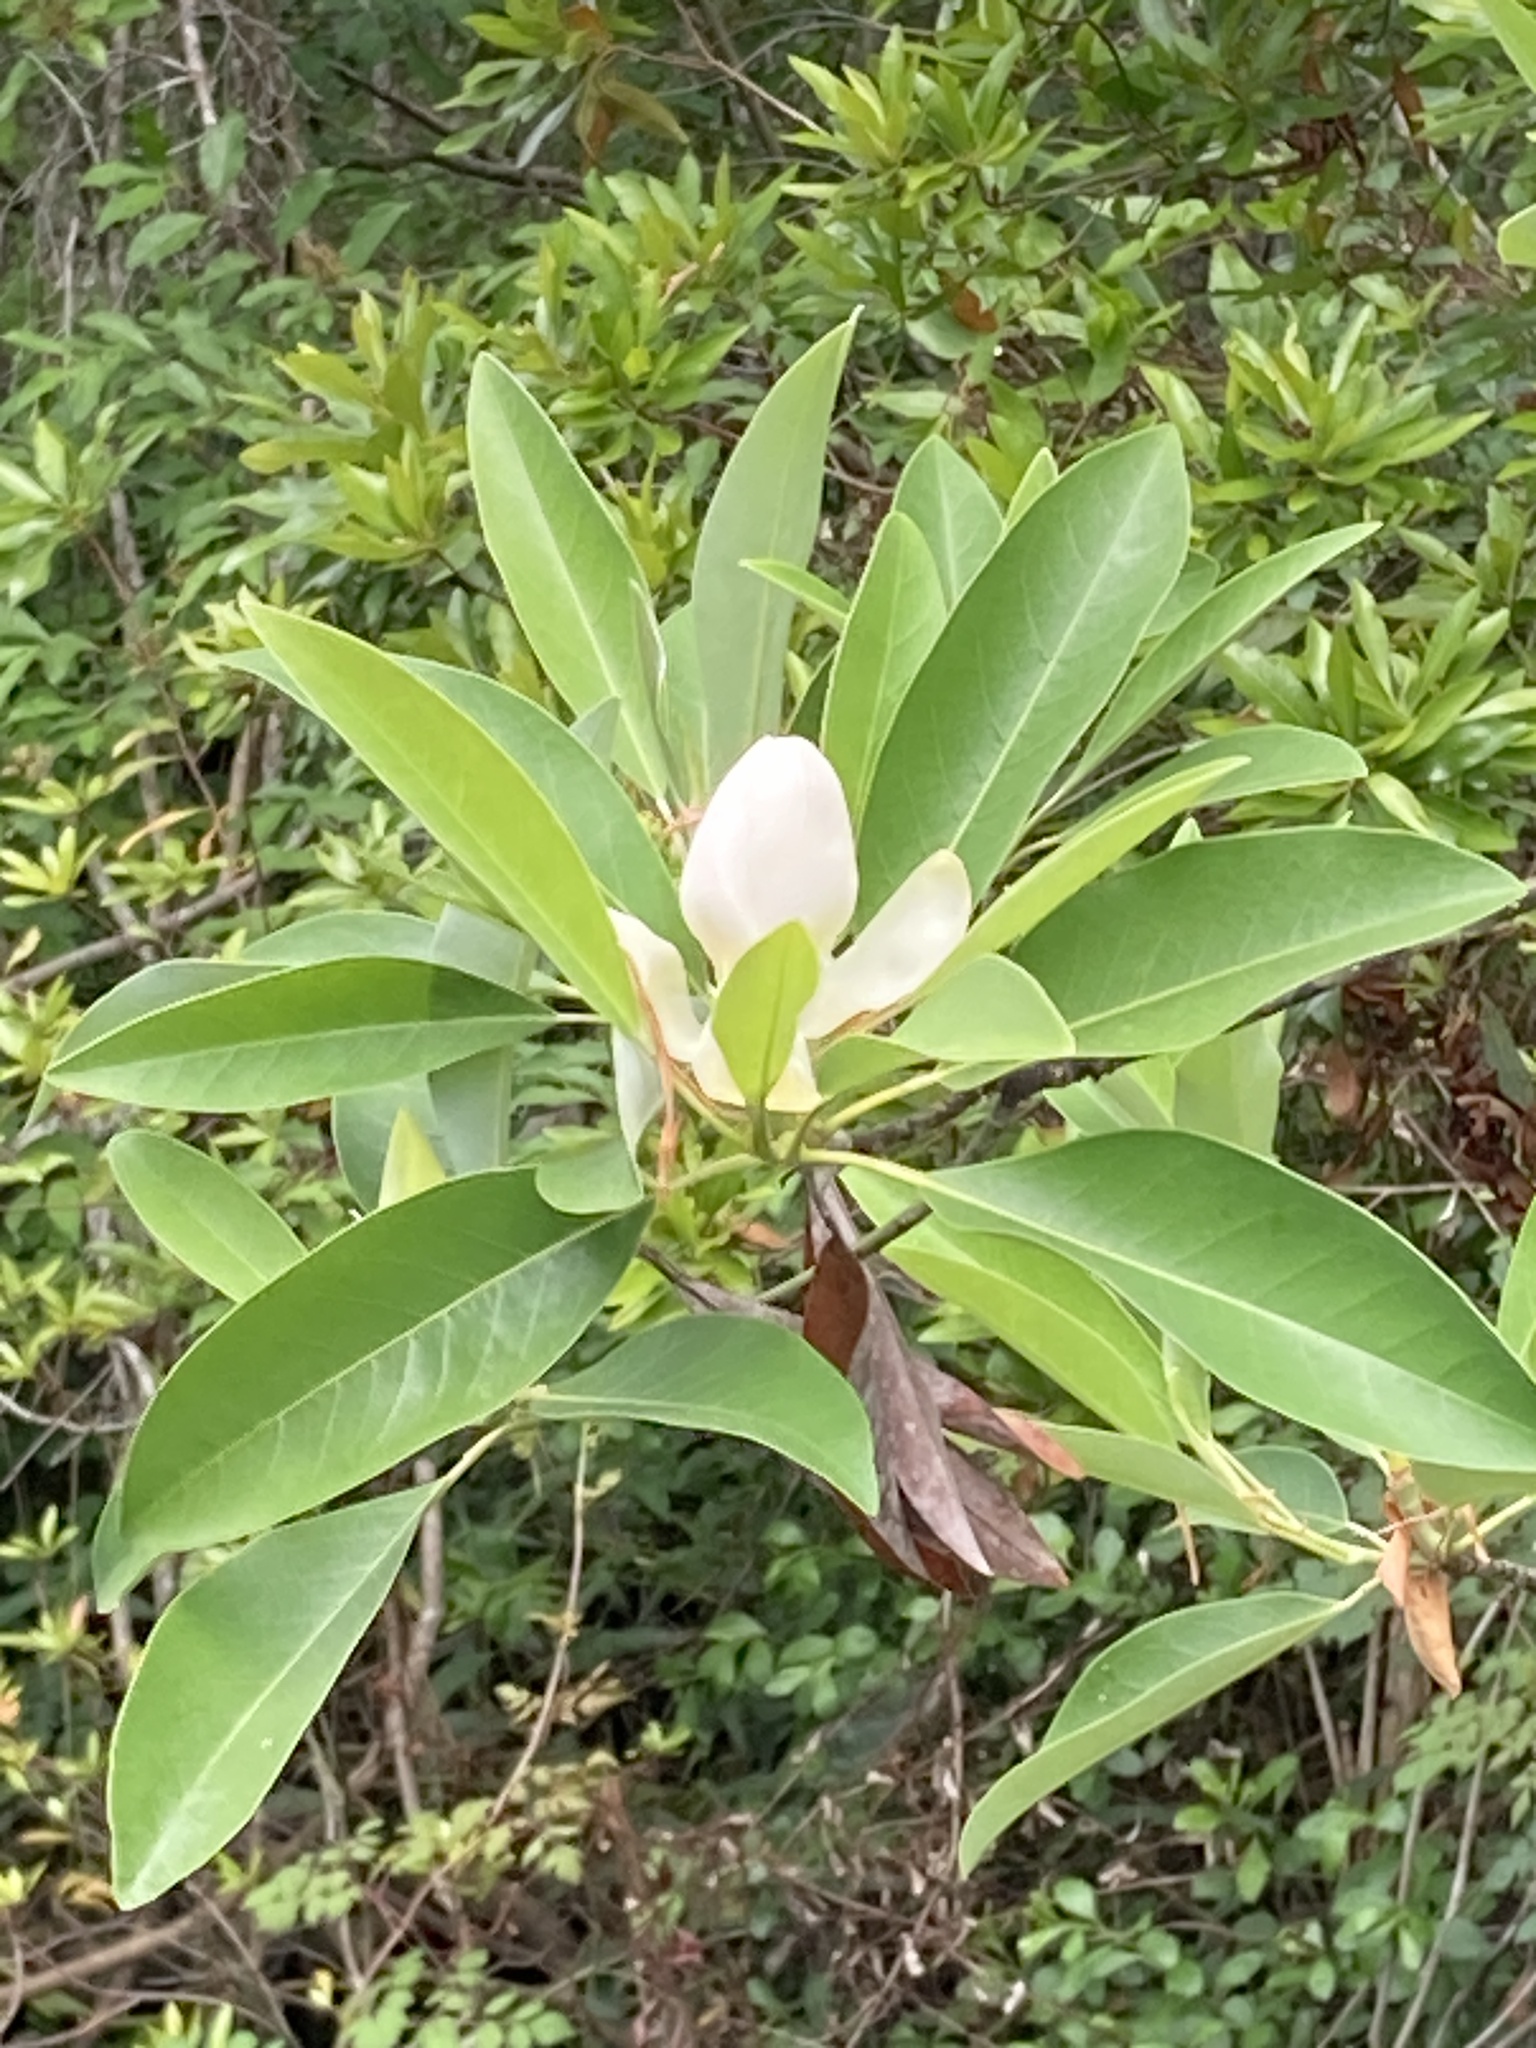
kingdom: Plantae
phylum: Tracheophyta
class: Magnoliopsida
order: Magnoliales
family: Magnoliaceae
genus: Magnolia
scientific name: Magnolia virginiana
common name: Swamp bay
